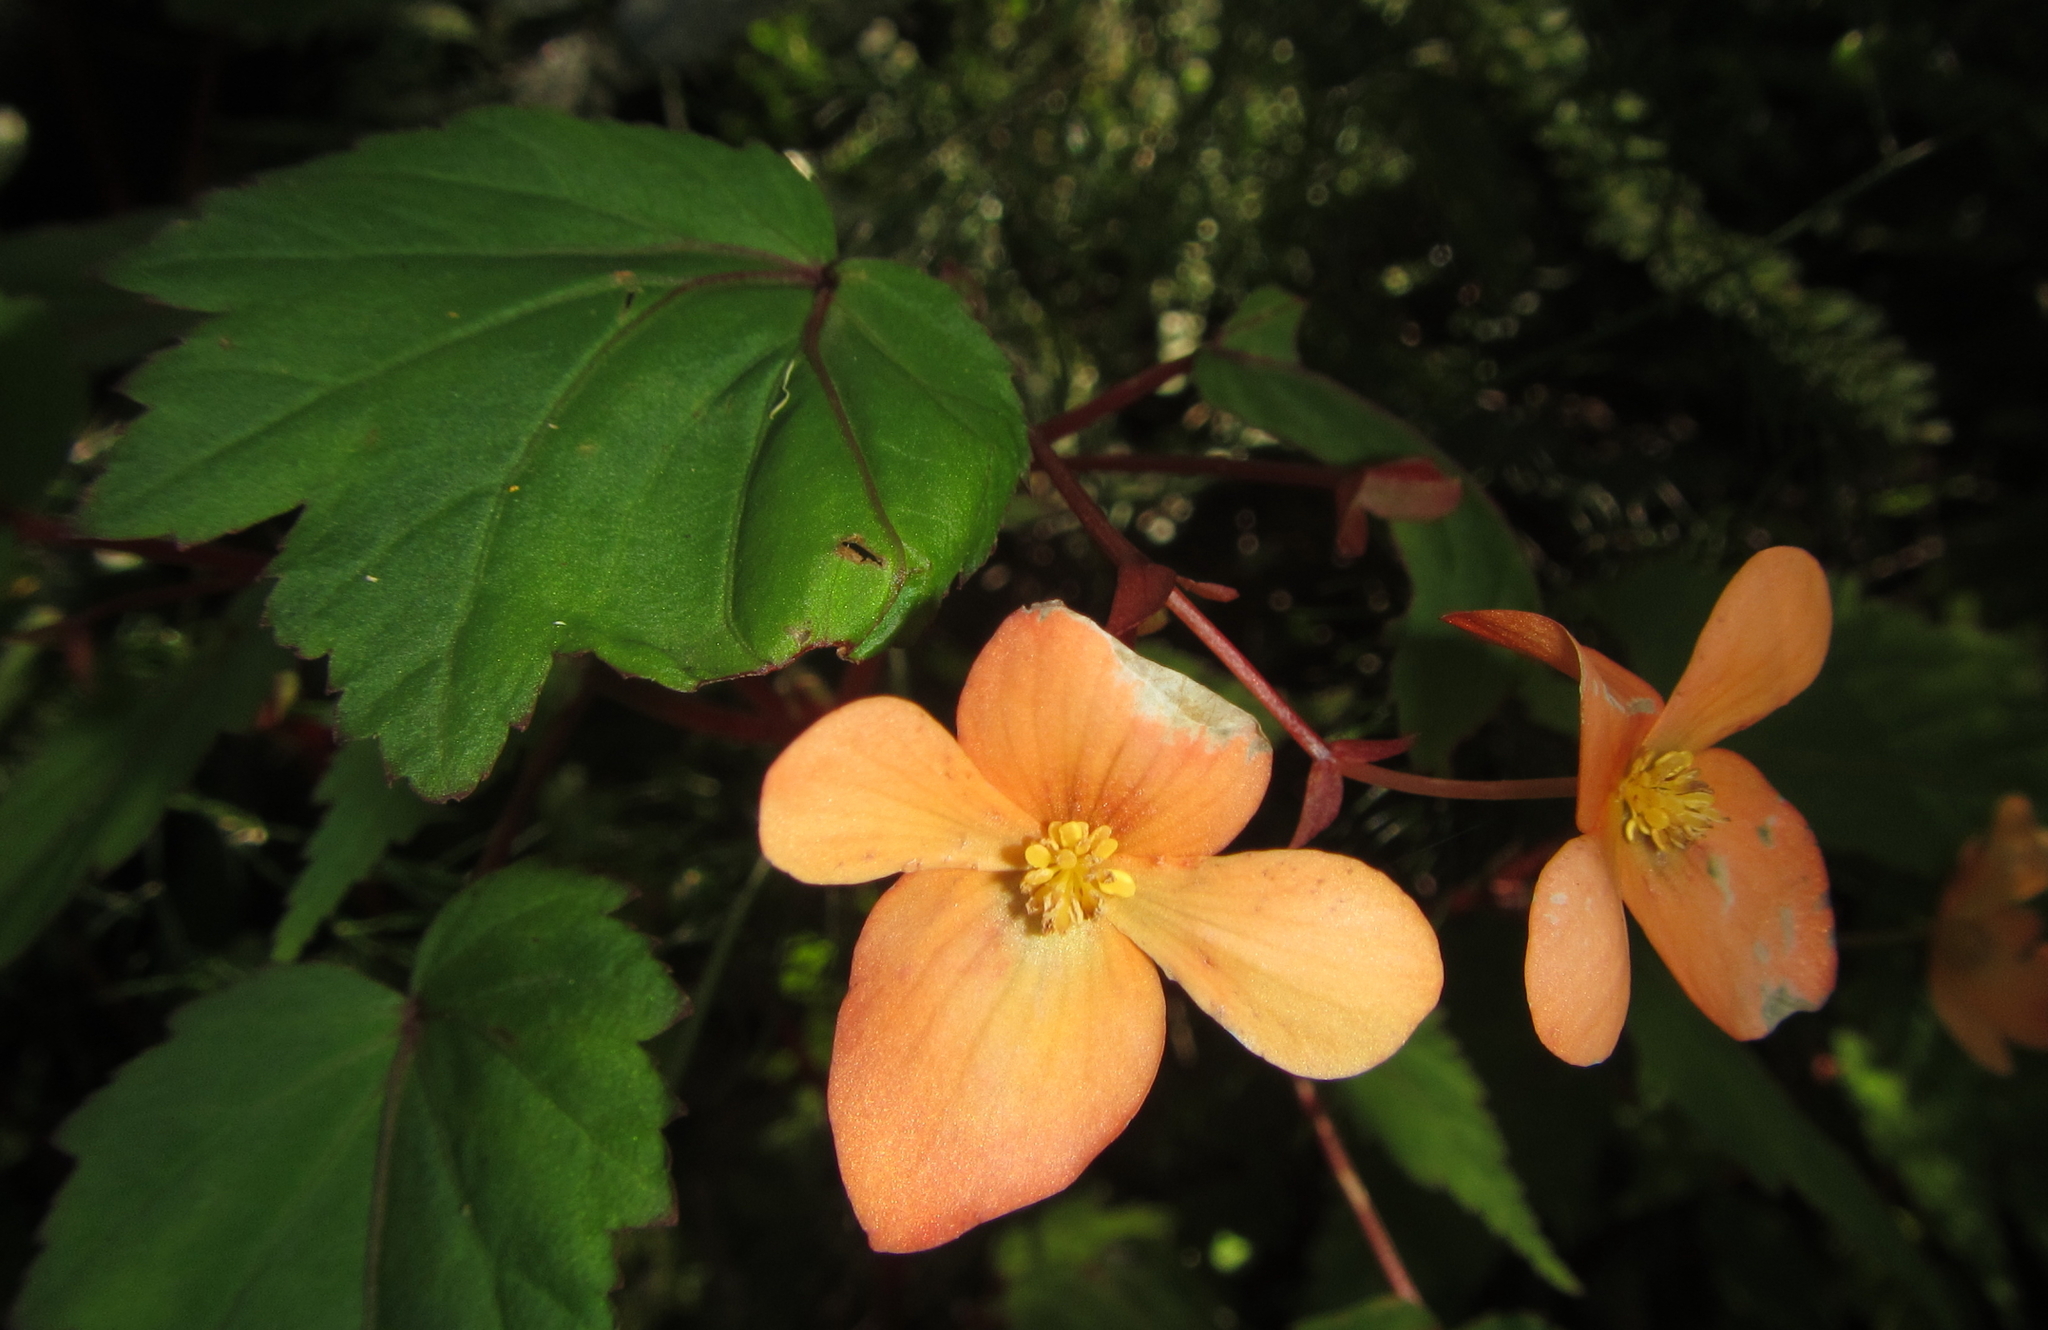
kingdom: Plantae
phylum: Tracheophyta
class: Magnoliopsida
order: Cucurbitales
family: Begoniaceae
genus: Begonia
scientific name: Begonia sutherlandii
